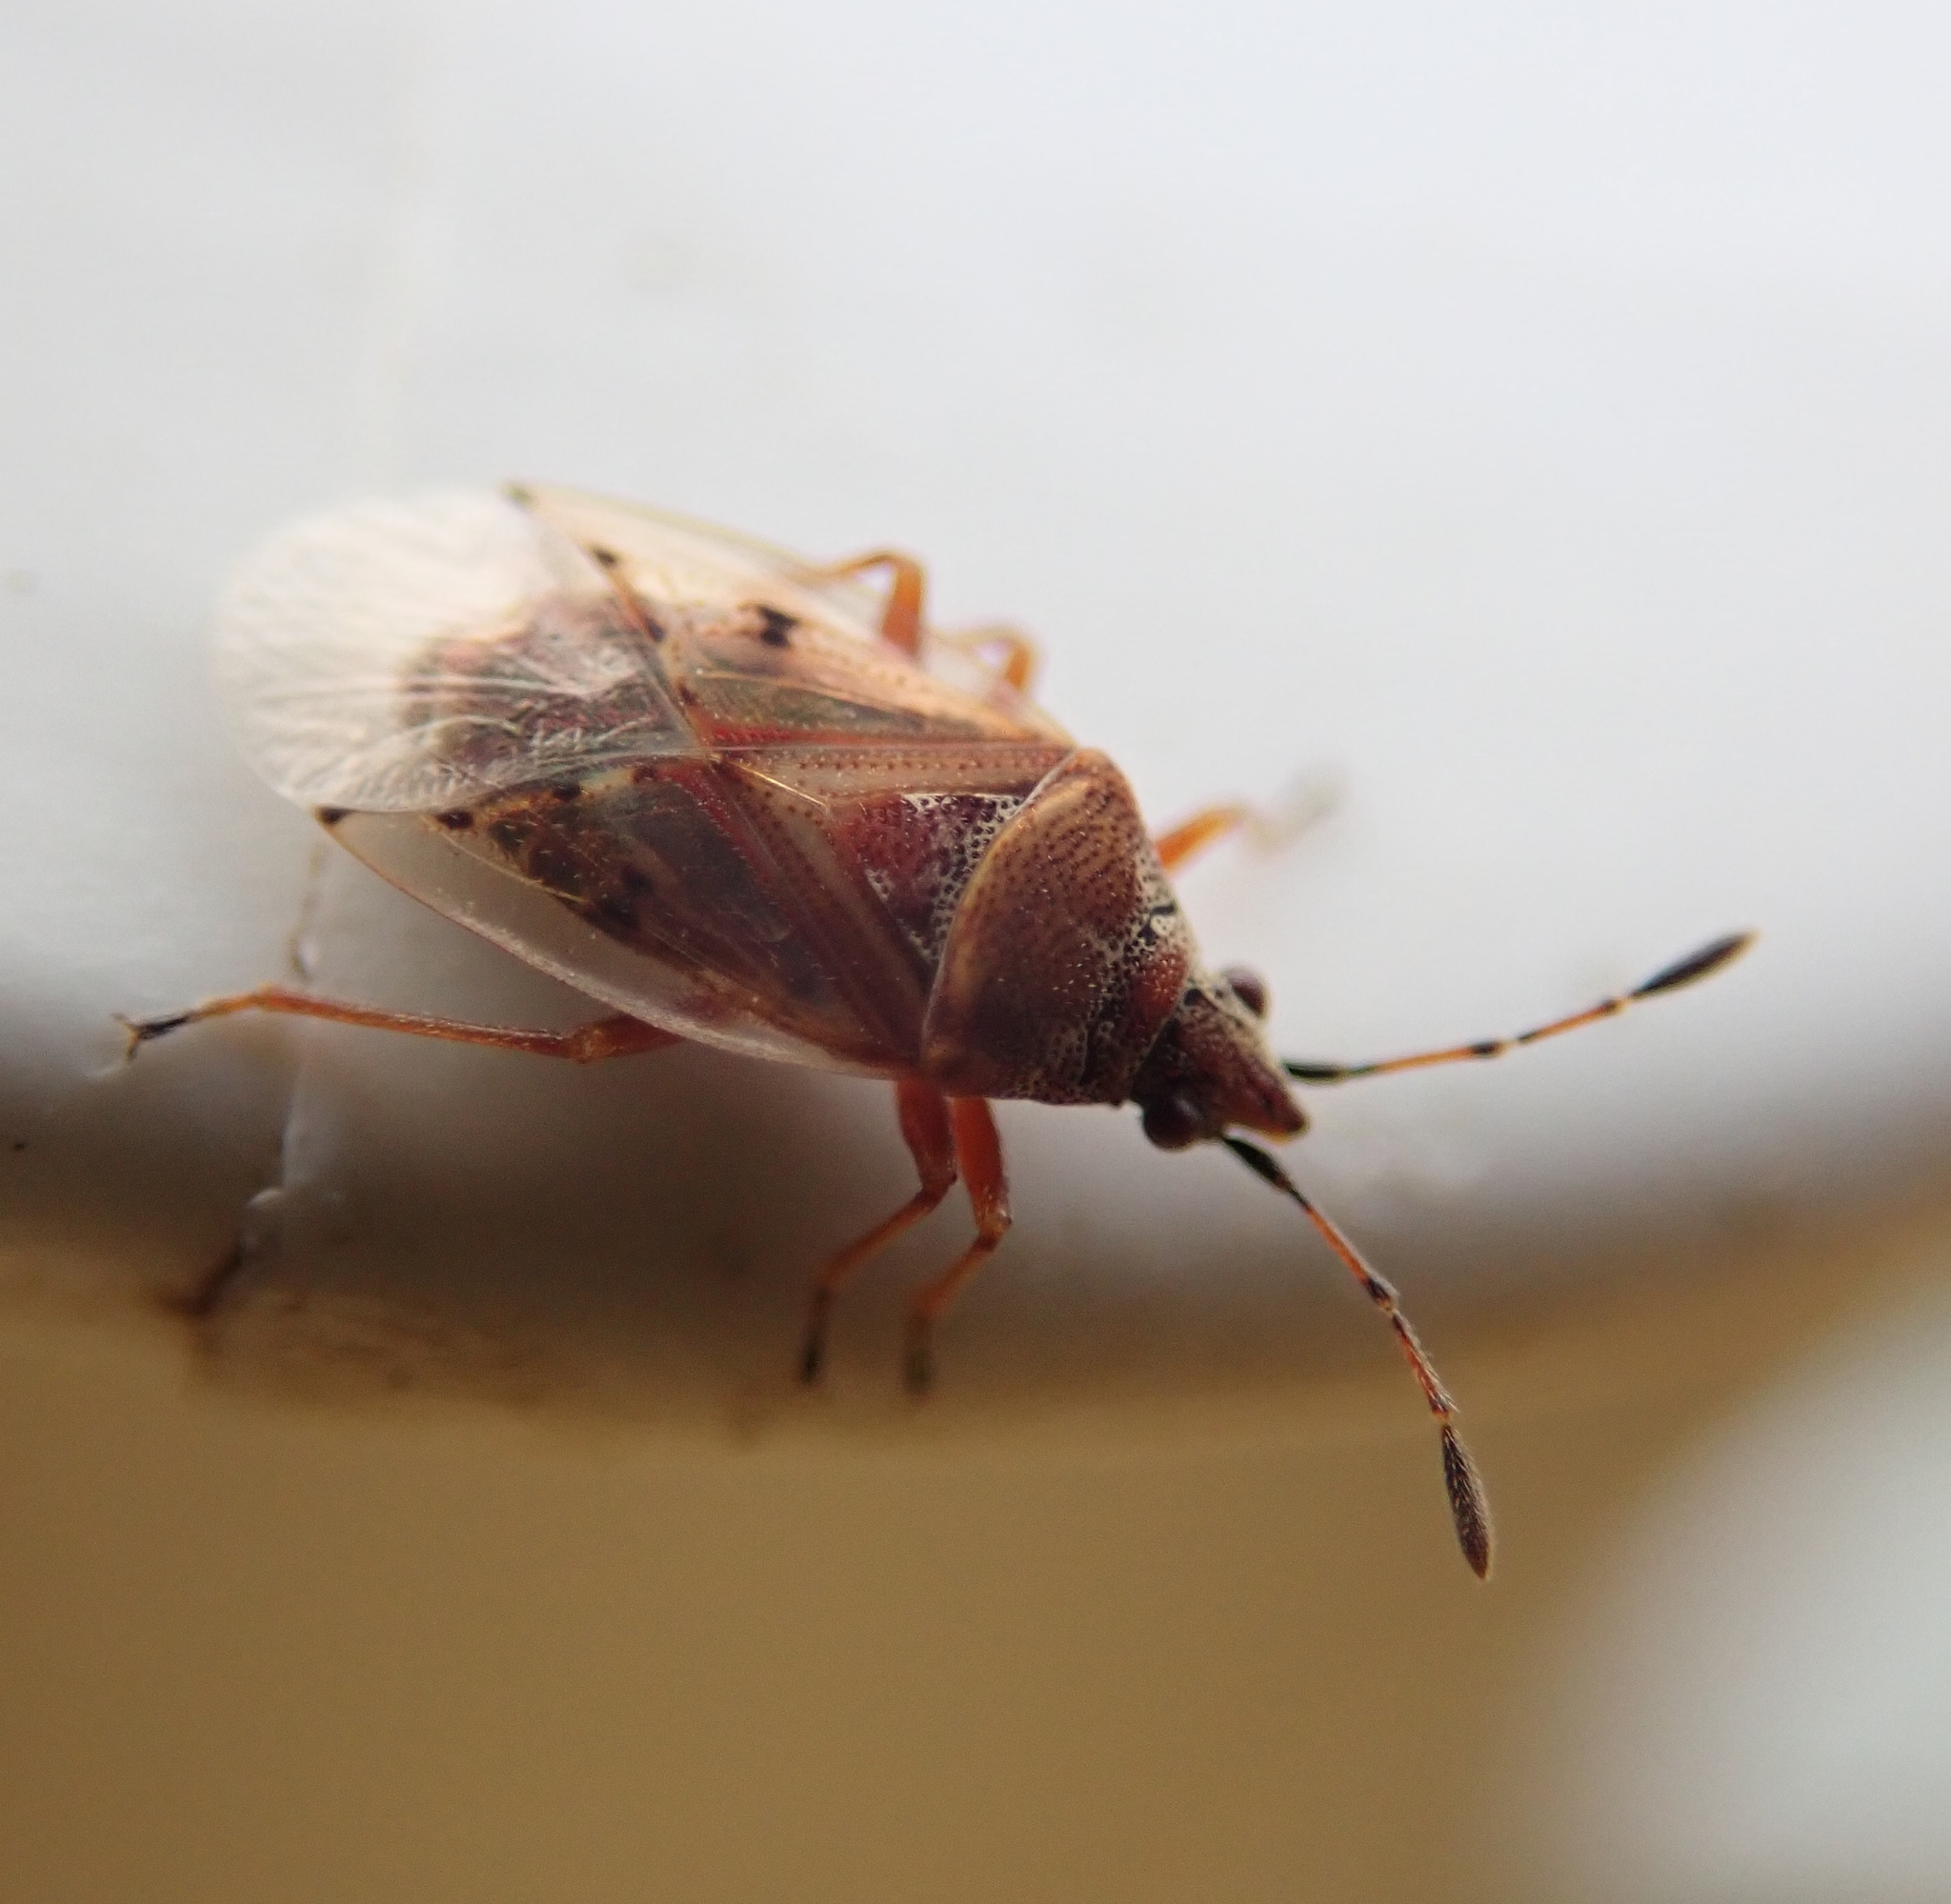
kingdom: Animalia
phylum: Arthropoda
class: Insecta
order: Hemiptera
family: Lygaeidae
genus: Kleidocerys
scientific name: Kleidocerys resedae
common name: Birch catkin bug
